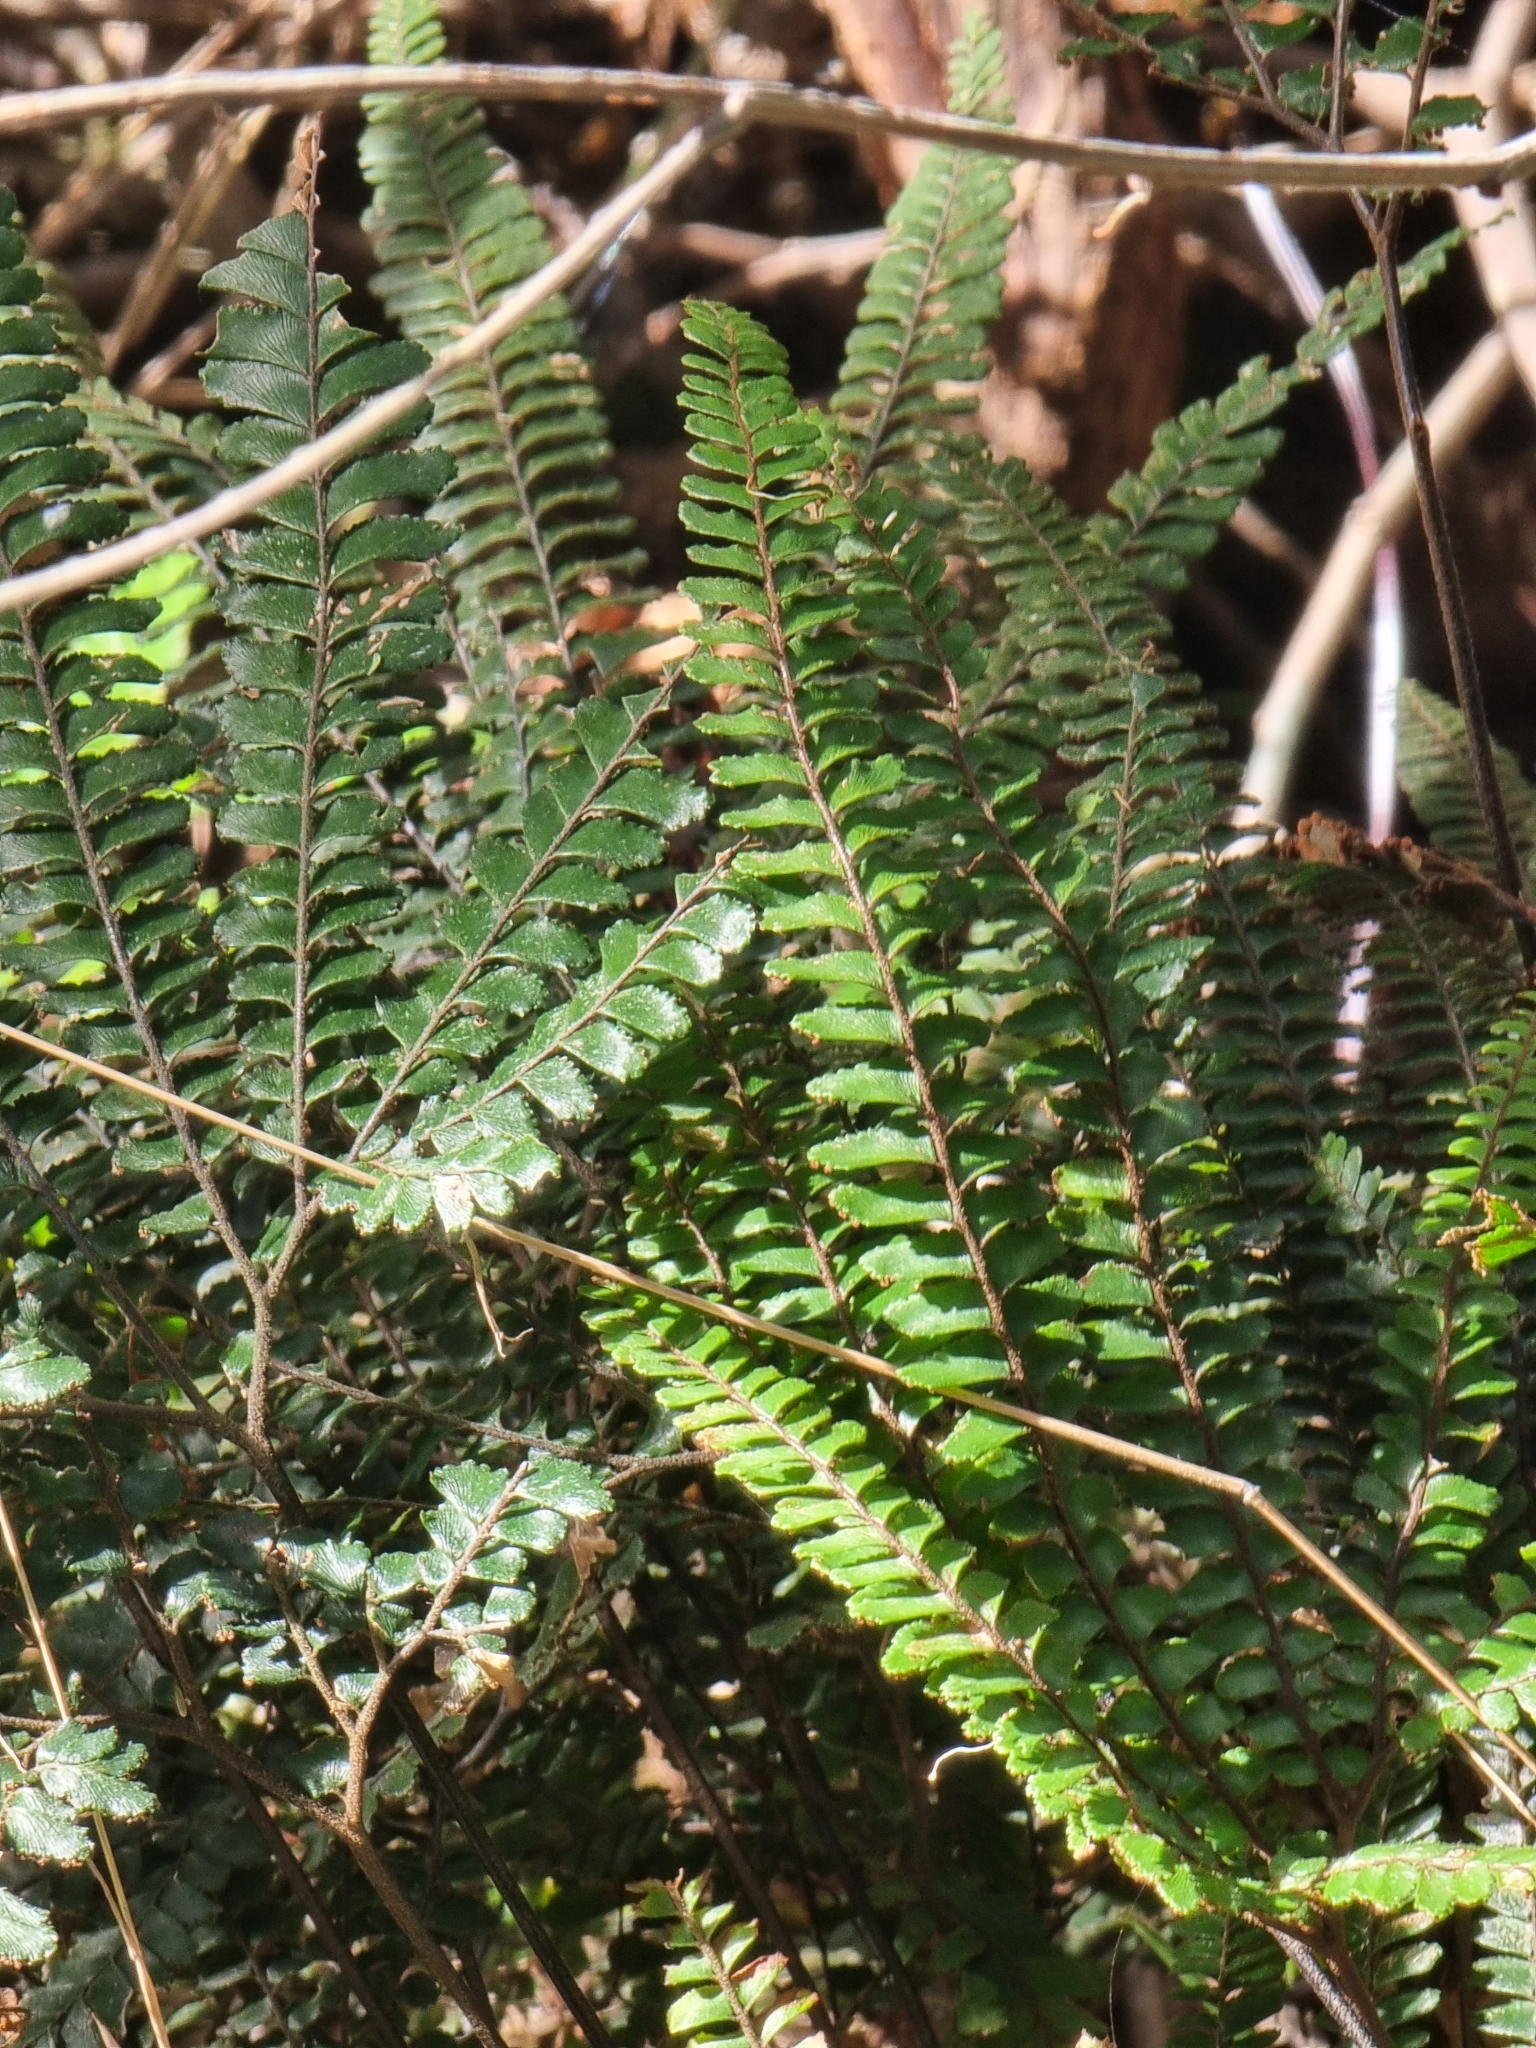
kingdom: Plantae
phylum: Tracheophyta
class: Polypodiopsida
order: Polypodiales
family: Pteridaceae
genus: Adiantum
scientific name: Adiantum hispidulum
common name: Rough maidenhair
